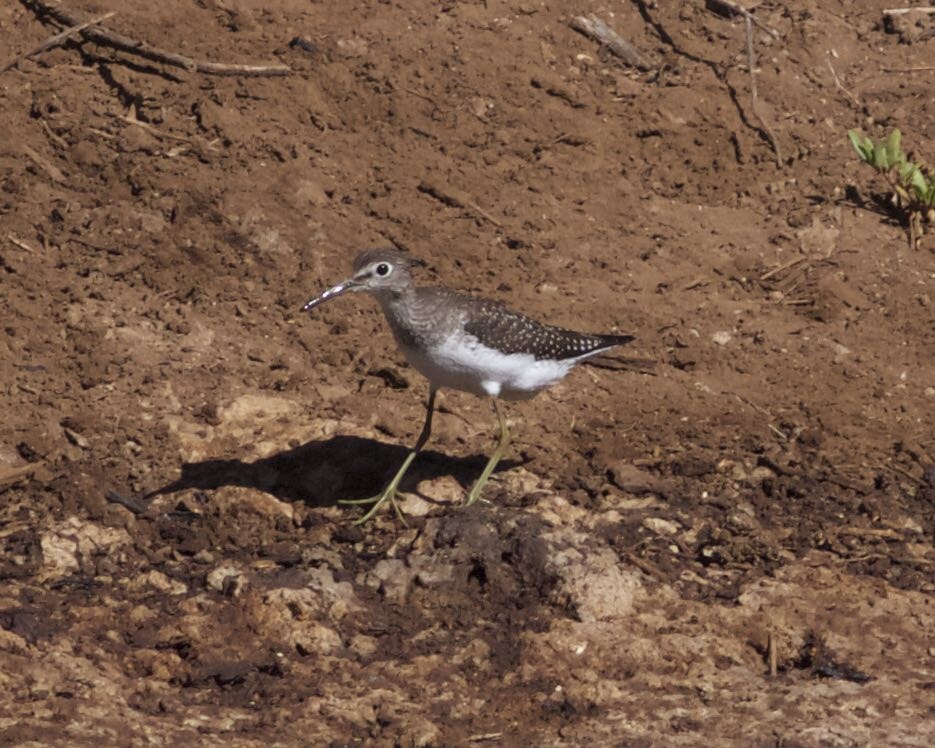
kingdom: Animalia
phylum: Chordata
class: Aves
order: Charadriiformes
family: Scolopacidae
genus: Tringa
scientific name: Tringa solitaria
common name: Solitary sandpiper
